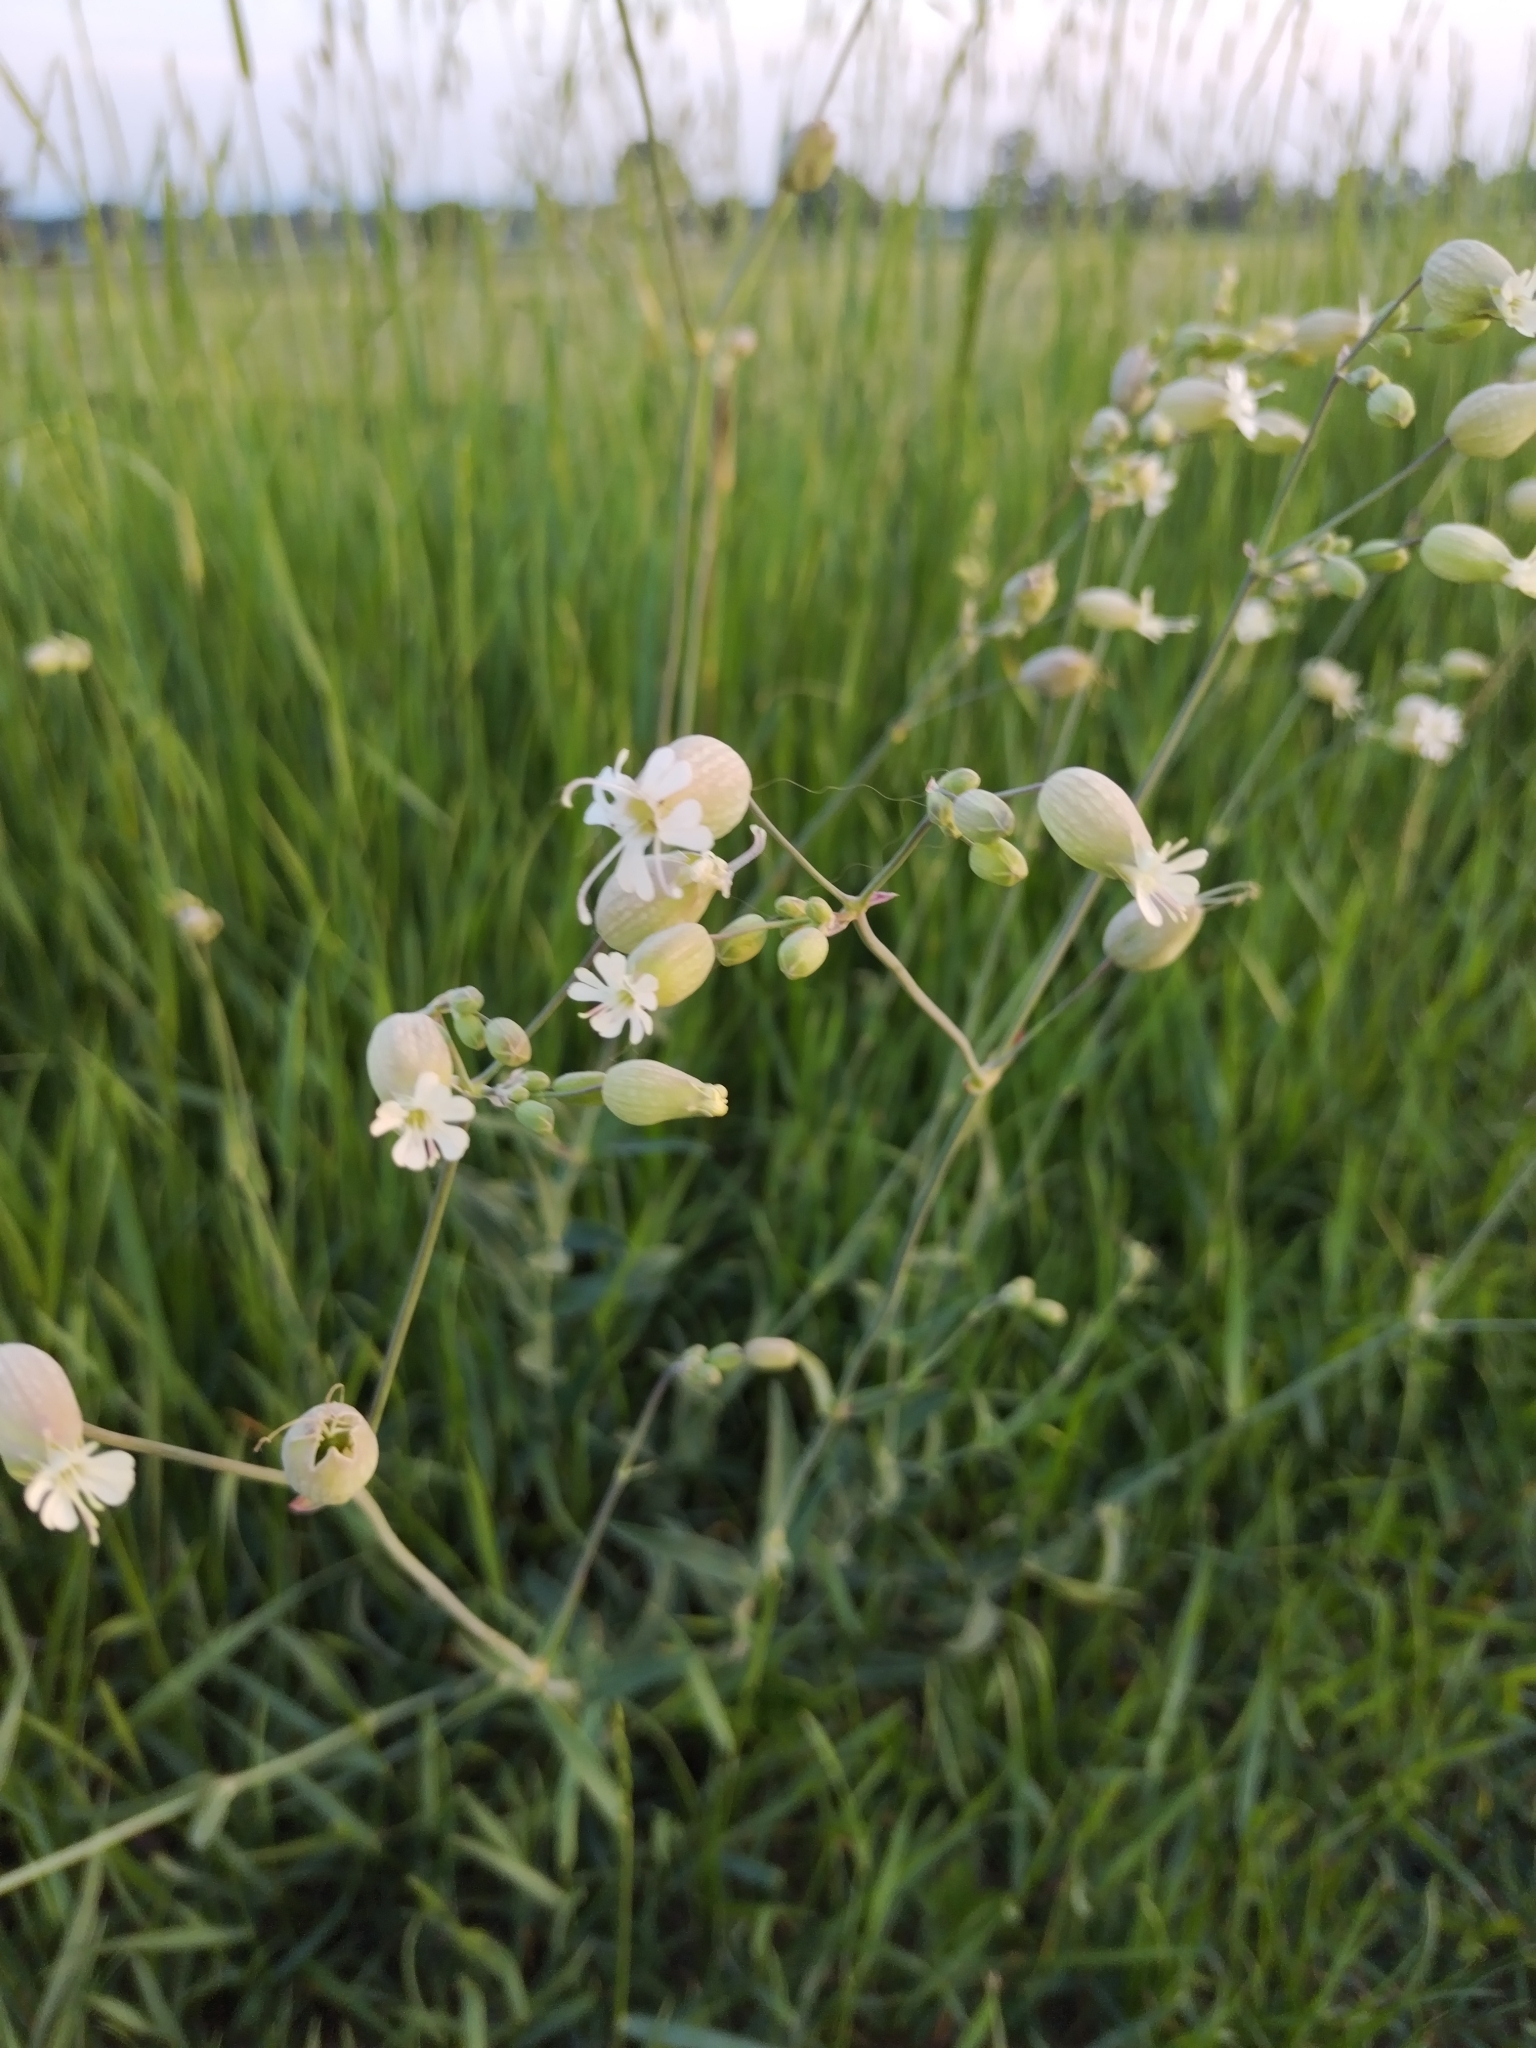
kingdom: Plantae
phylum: Tracheophyta
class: Magnoliopsida
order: Caryophyllales
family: Caryophyllaceae
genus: Silene
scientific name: Silene vulgaris
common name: Bladder campion
